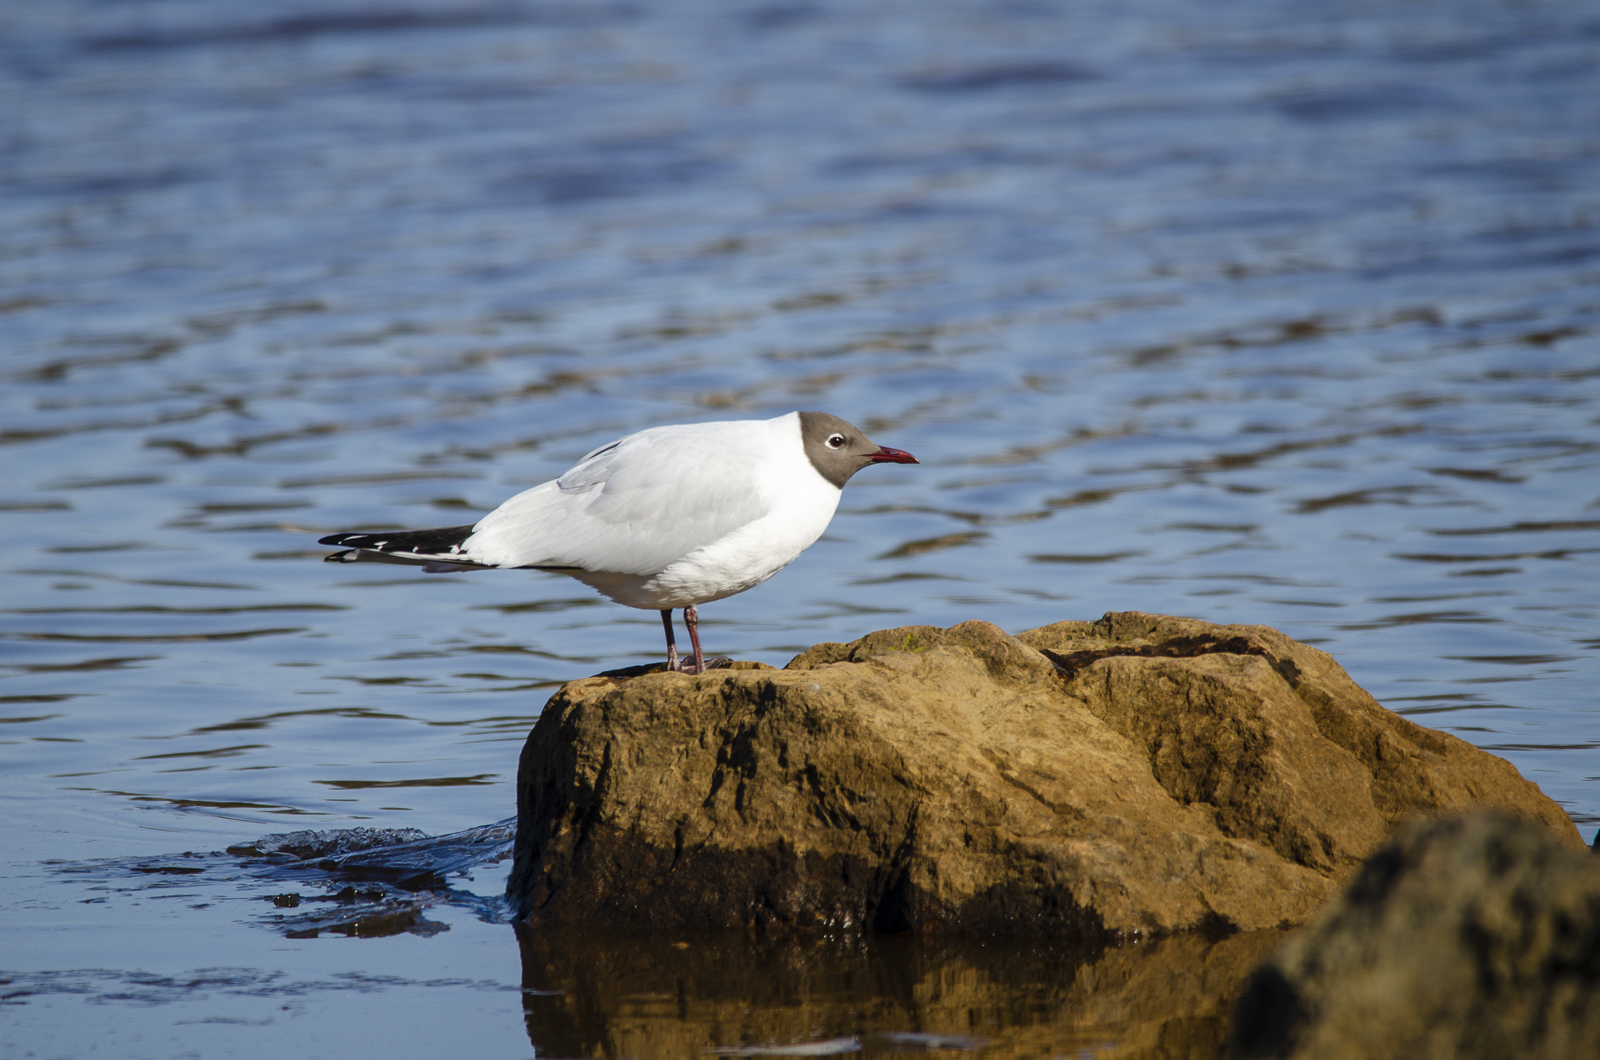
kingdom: Animalia
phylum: Chordata
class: Aves
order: Charadriiformes
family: Laridae
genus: Chroicocephalus
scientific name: Chroicocephalus ridibundus
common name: Black-headed gull
